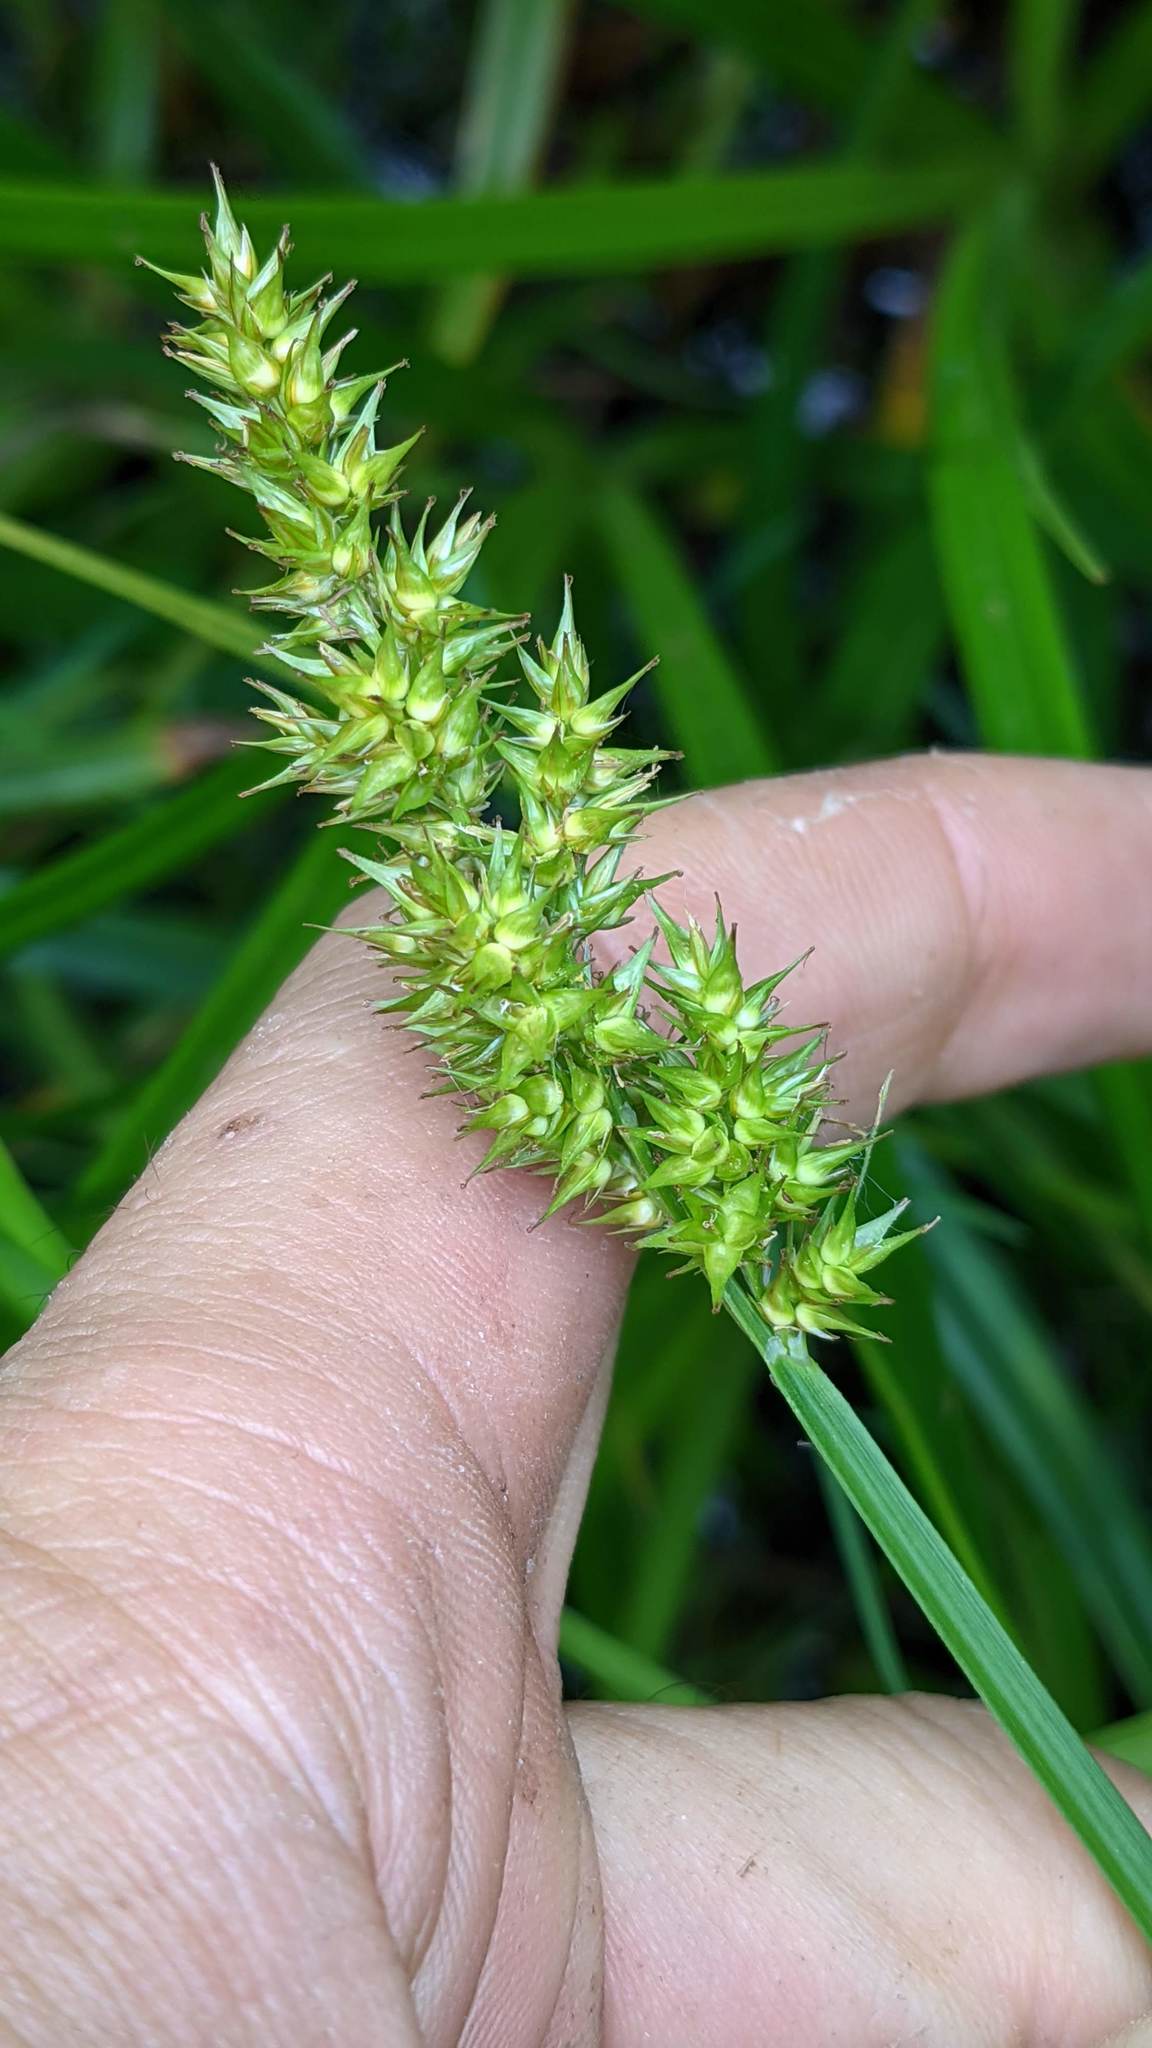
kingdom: Plantae
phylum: Tracheophyta
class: Liliopsida
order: Poales
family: Cyperaceae
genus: Carex
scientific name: Carex stipata
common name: Awl-fruited sedge
